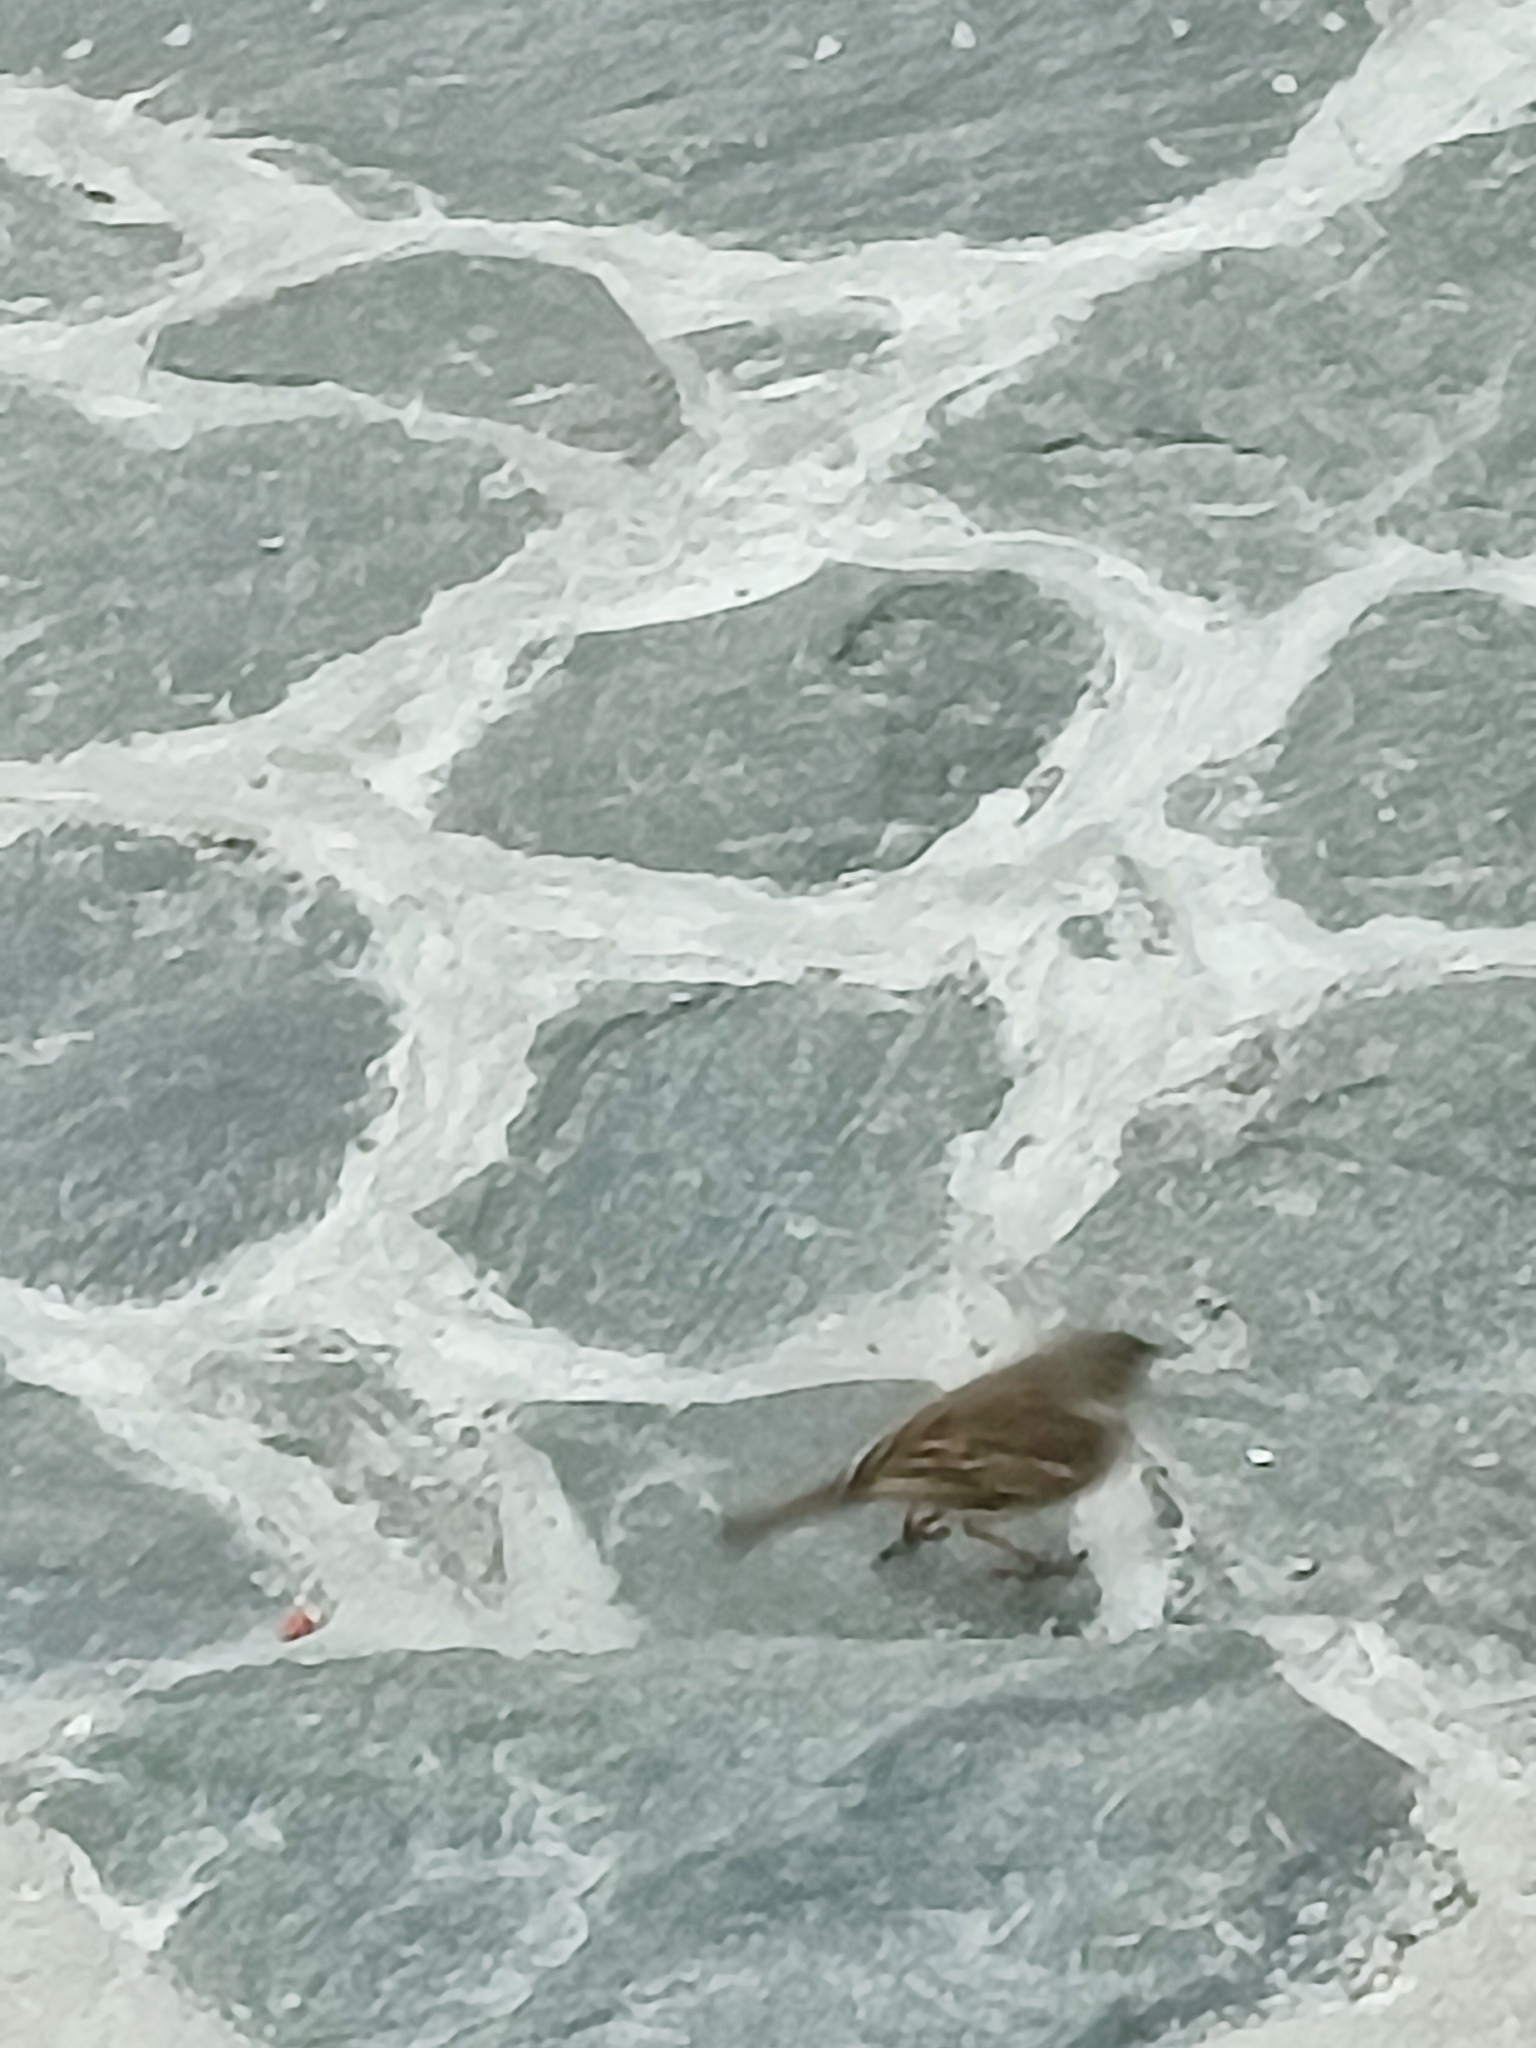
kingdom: Animalia
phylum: Chordata
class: Aves
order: Passeriformes
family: Motacillidae
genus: Anthus
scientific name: Anthus berthelotii
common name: Berthelot's pipit
